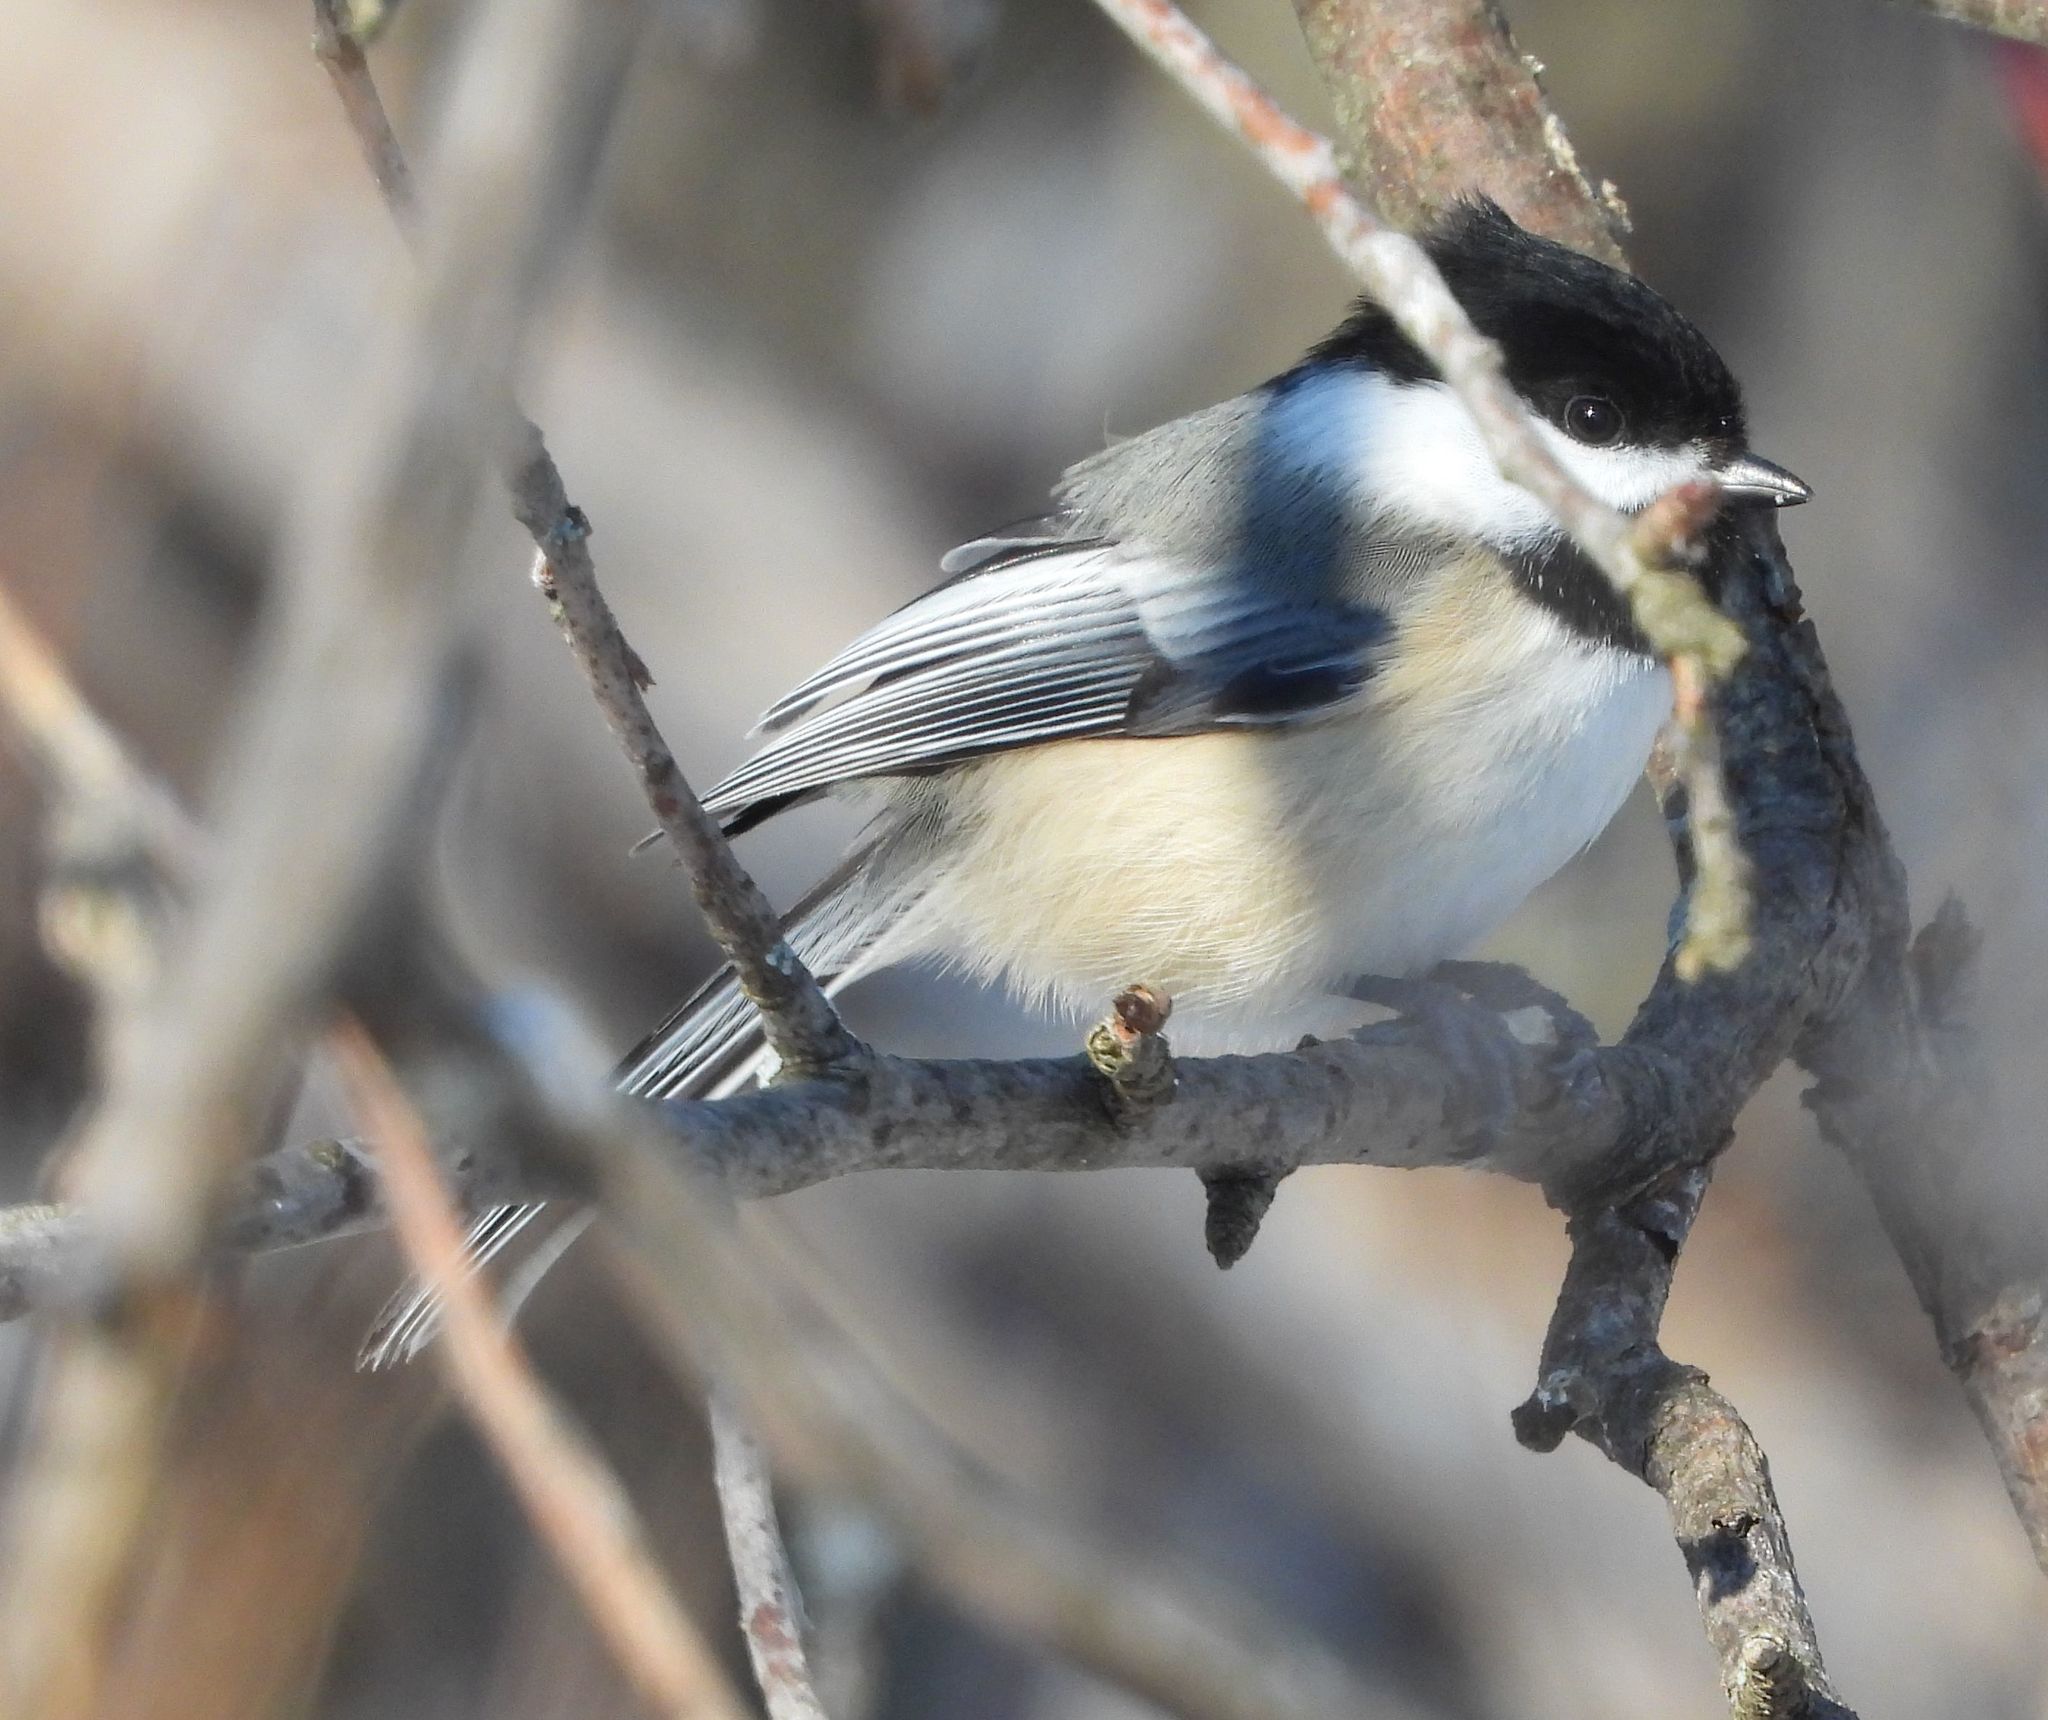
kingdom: Animalia
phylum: Chordata
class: Aves
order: Passeriformes
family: Paridae
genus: Poecile
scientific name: Poecile atricapillus
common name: Black-capped chickadee
